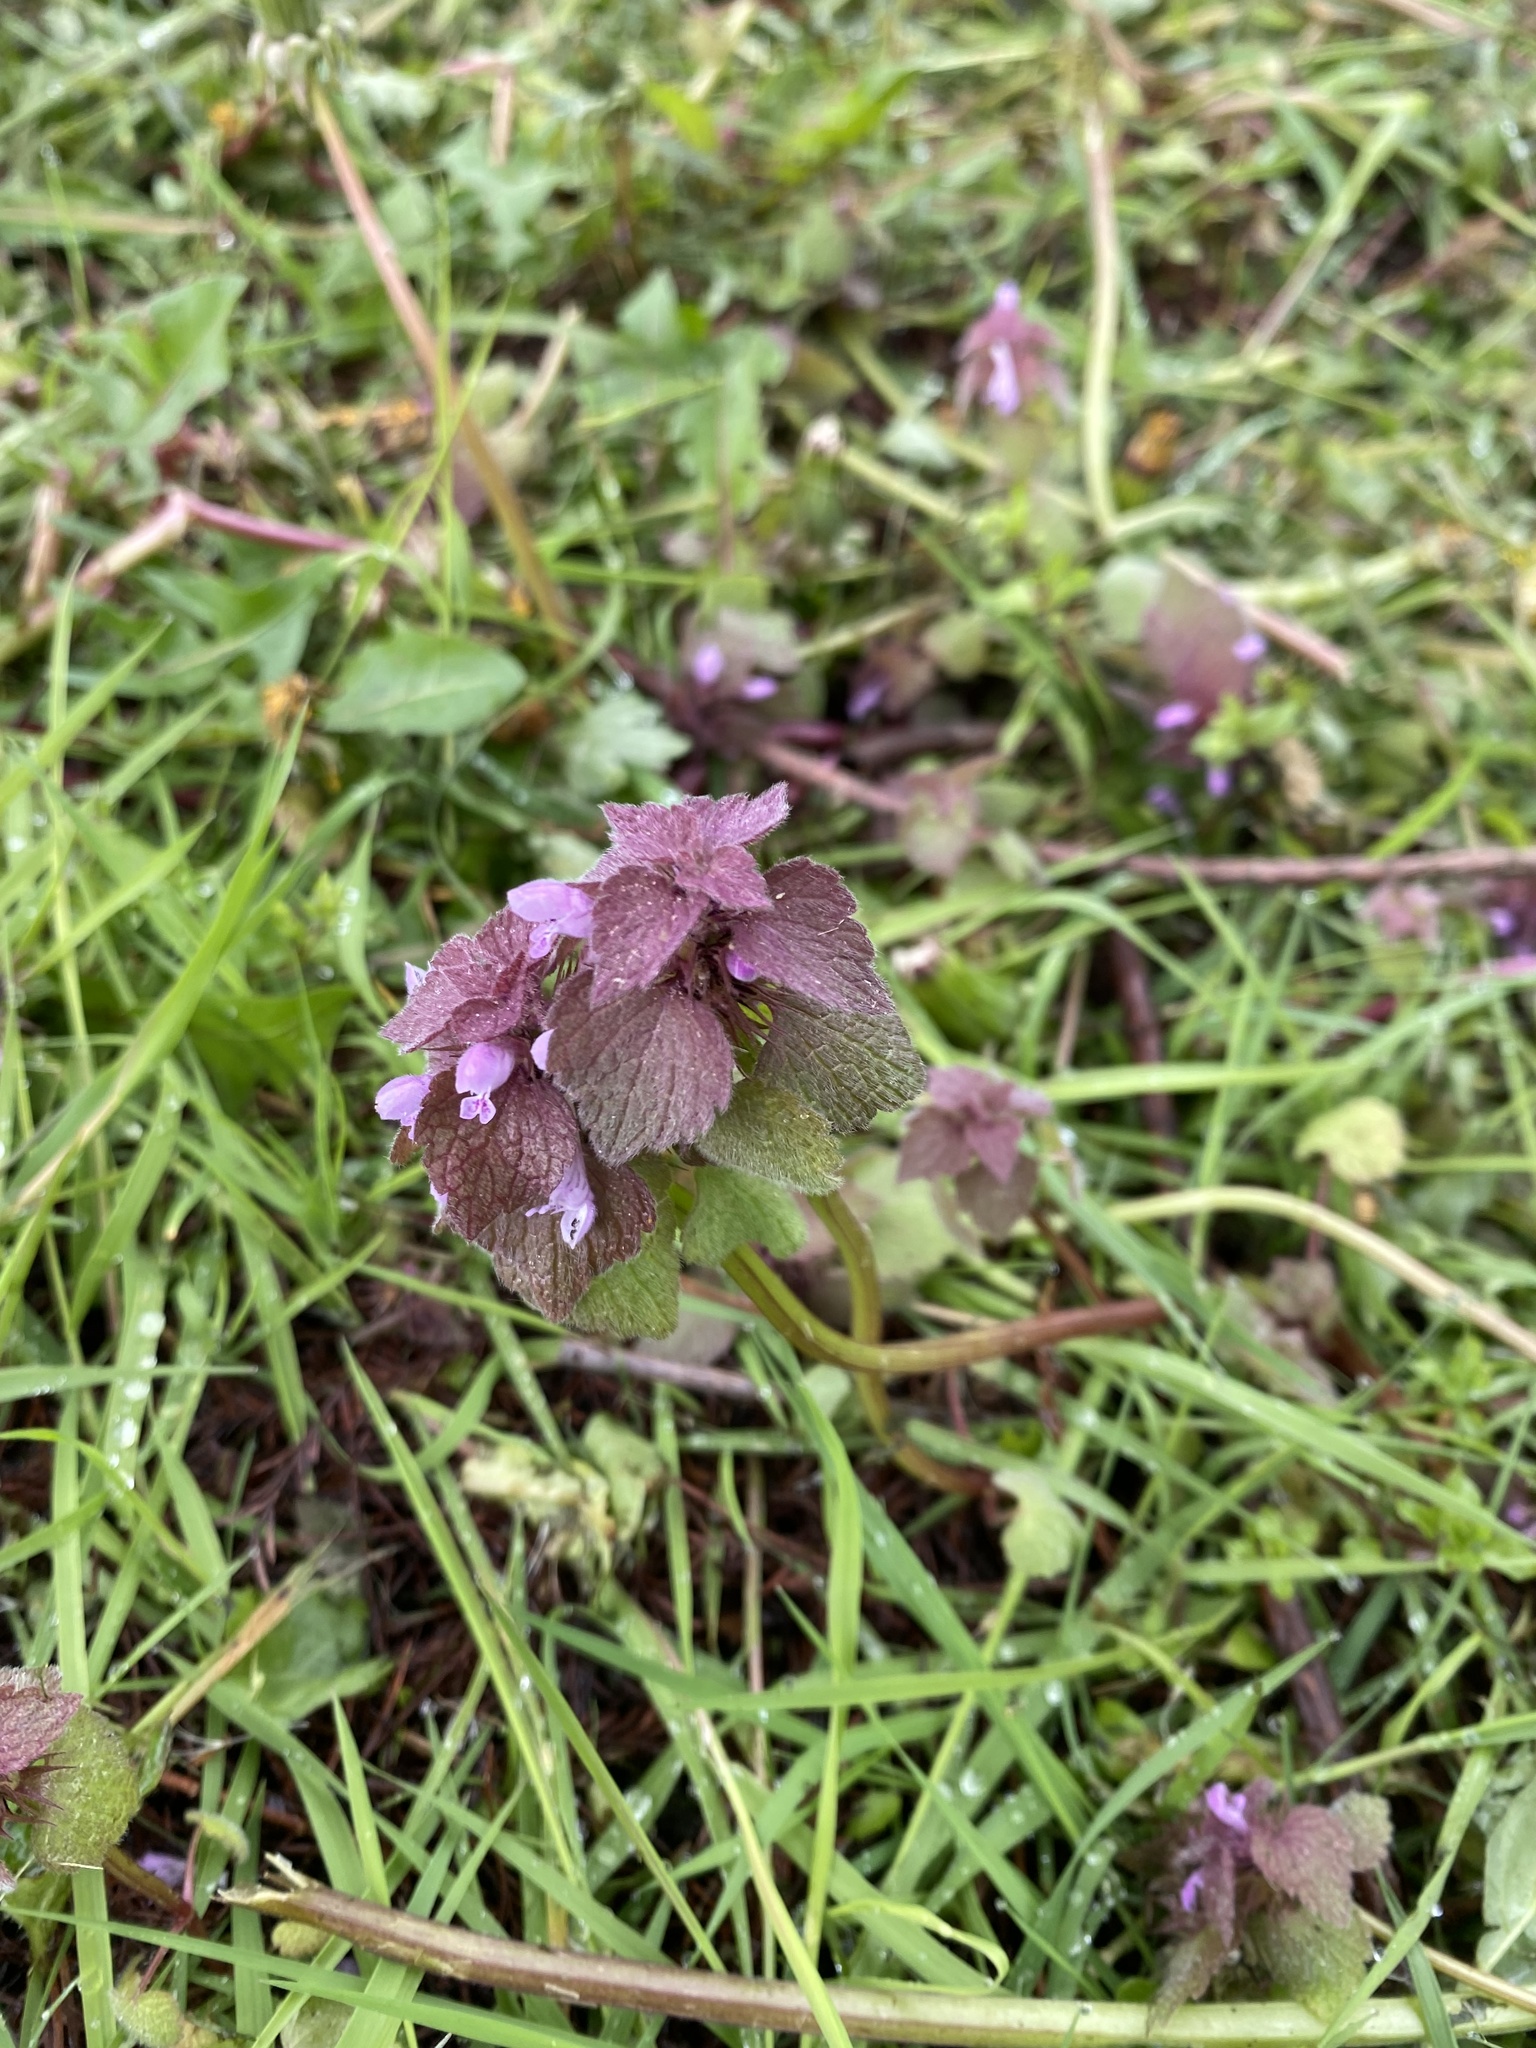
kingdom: Plantae
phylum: Tracheophyta
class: Magnoliopsida
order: Lamiales
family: Lamiaceae
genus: Lamium
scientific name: Lamium purpureum
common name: Red dead-nettle
